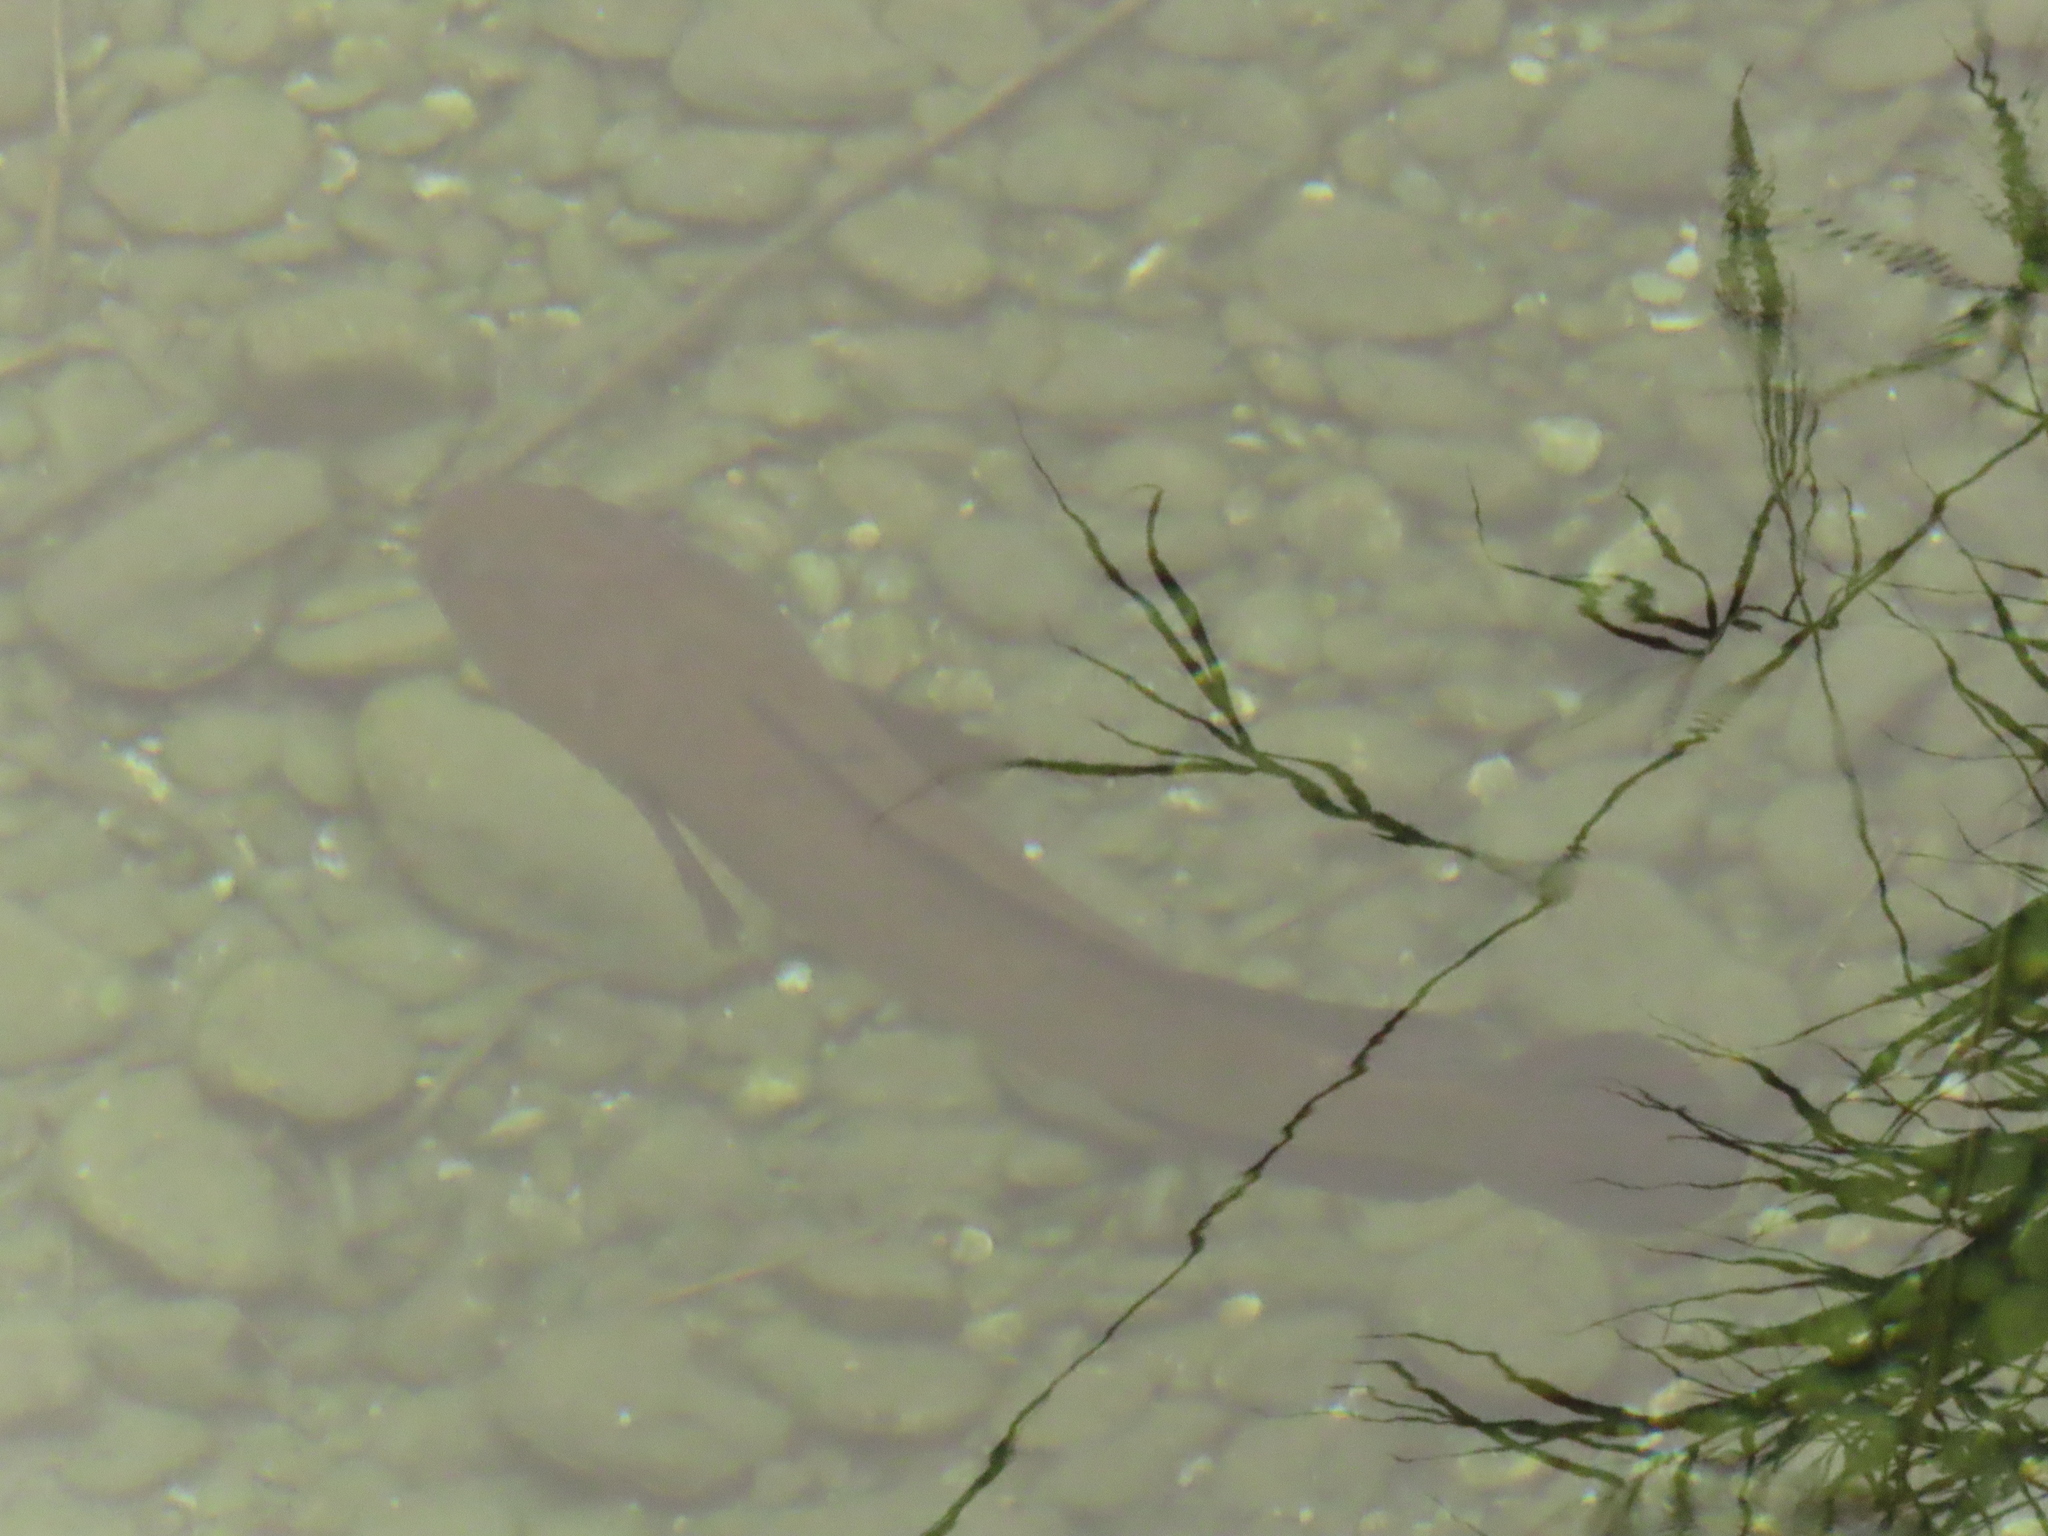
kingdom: Animalia
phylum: Chordata
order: Perciformes
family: Channidae
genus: Channa
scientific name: Channa striata
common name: Striped snakehead
